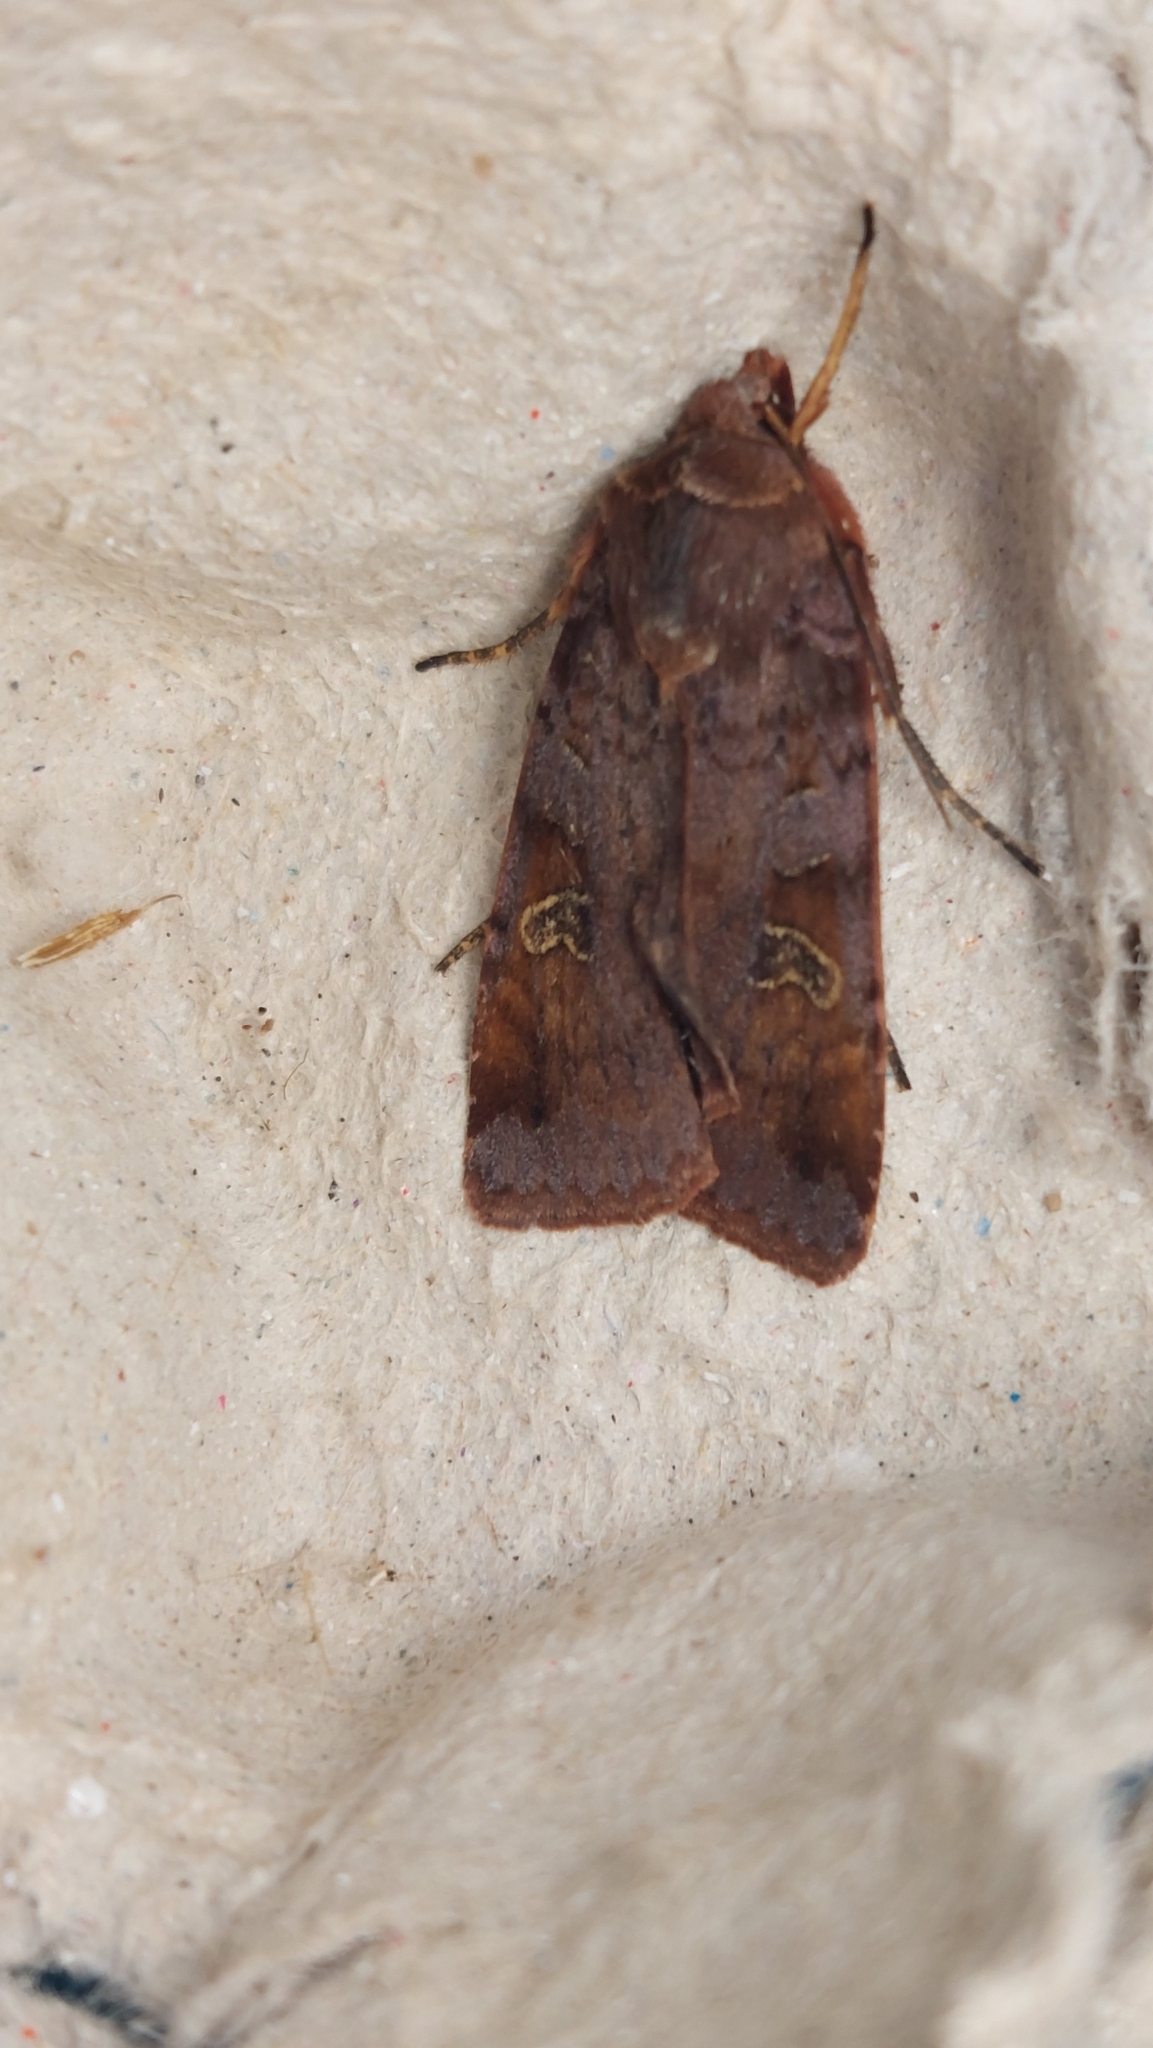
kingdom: Animalia
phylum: Arthropoda
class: Insecta
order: Lepidoptera
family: Noctuidae
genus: Diarsia
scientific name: Diarsia brunnea
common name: Purple clay
